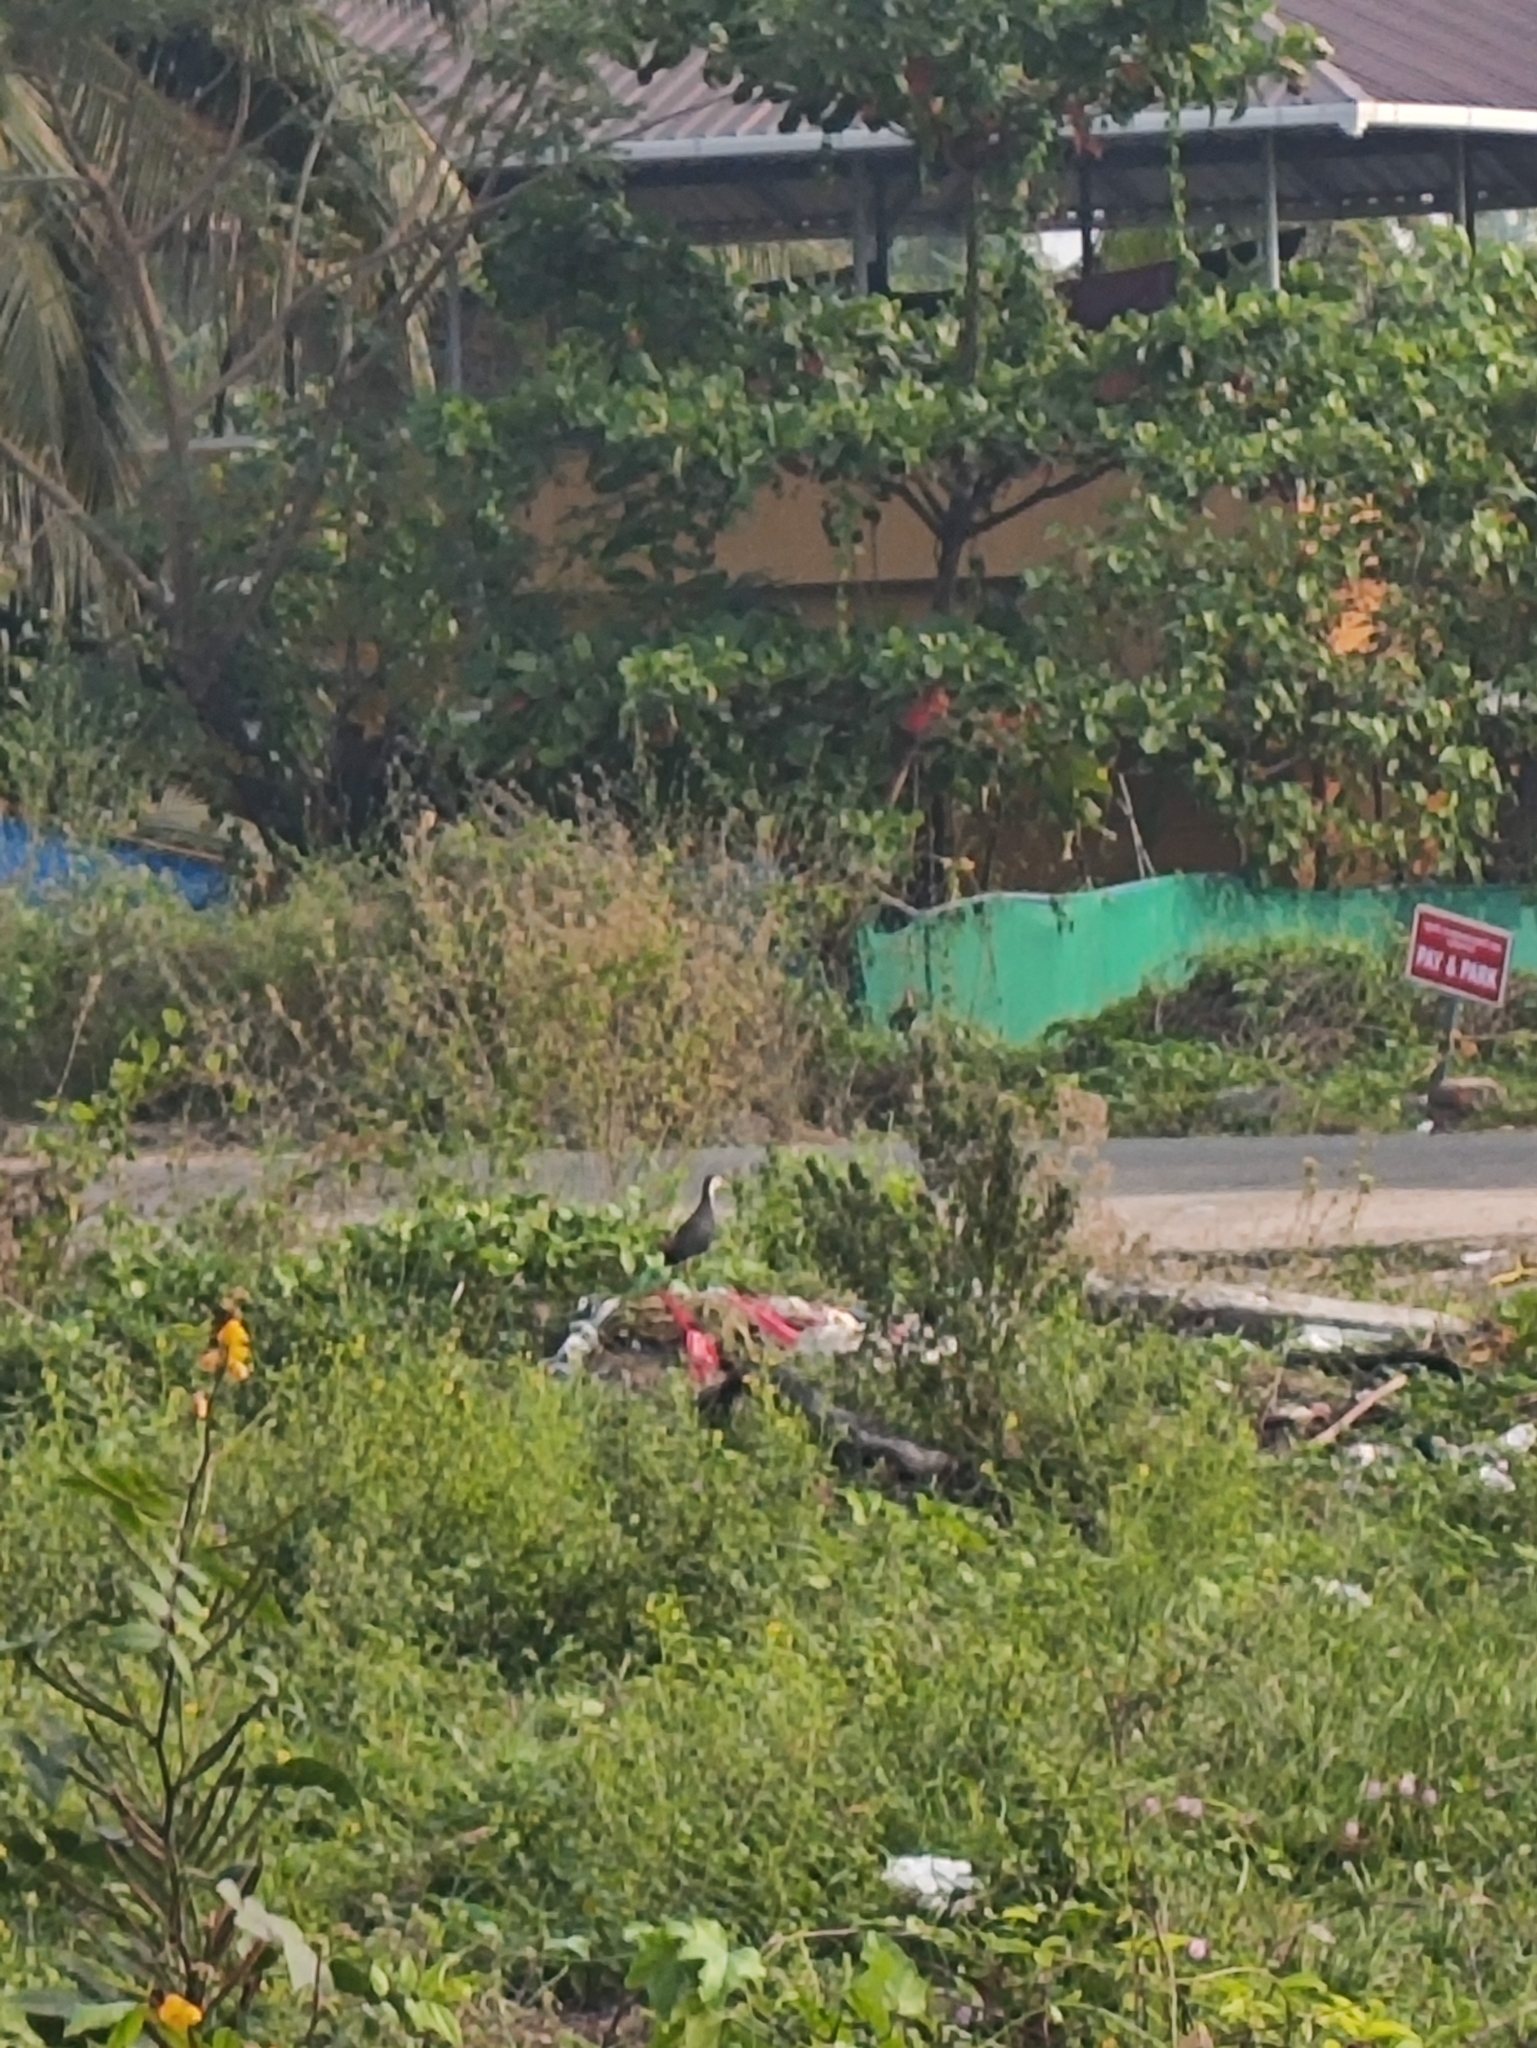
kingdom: Animalia
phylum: Chordata
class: Aves
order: Gruiformes
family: Rallidae
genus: Amaurornis
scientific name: Amaurornis phoenicurus
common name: White-breasted waterhen
